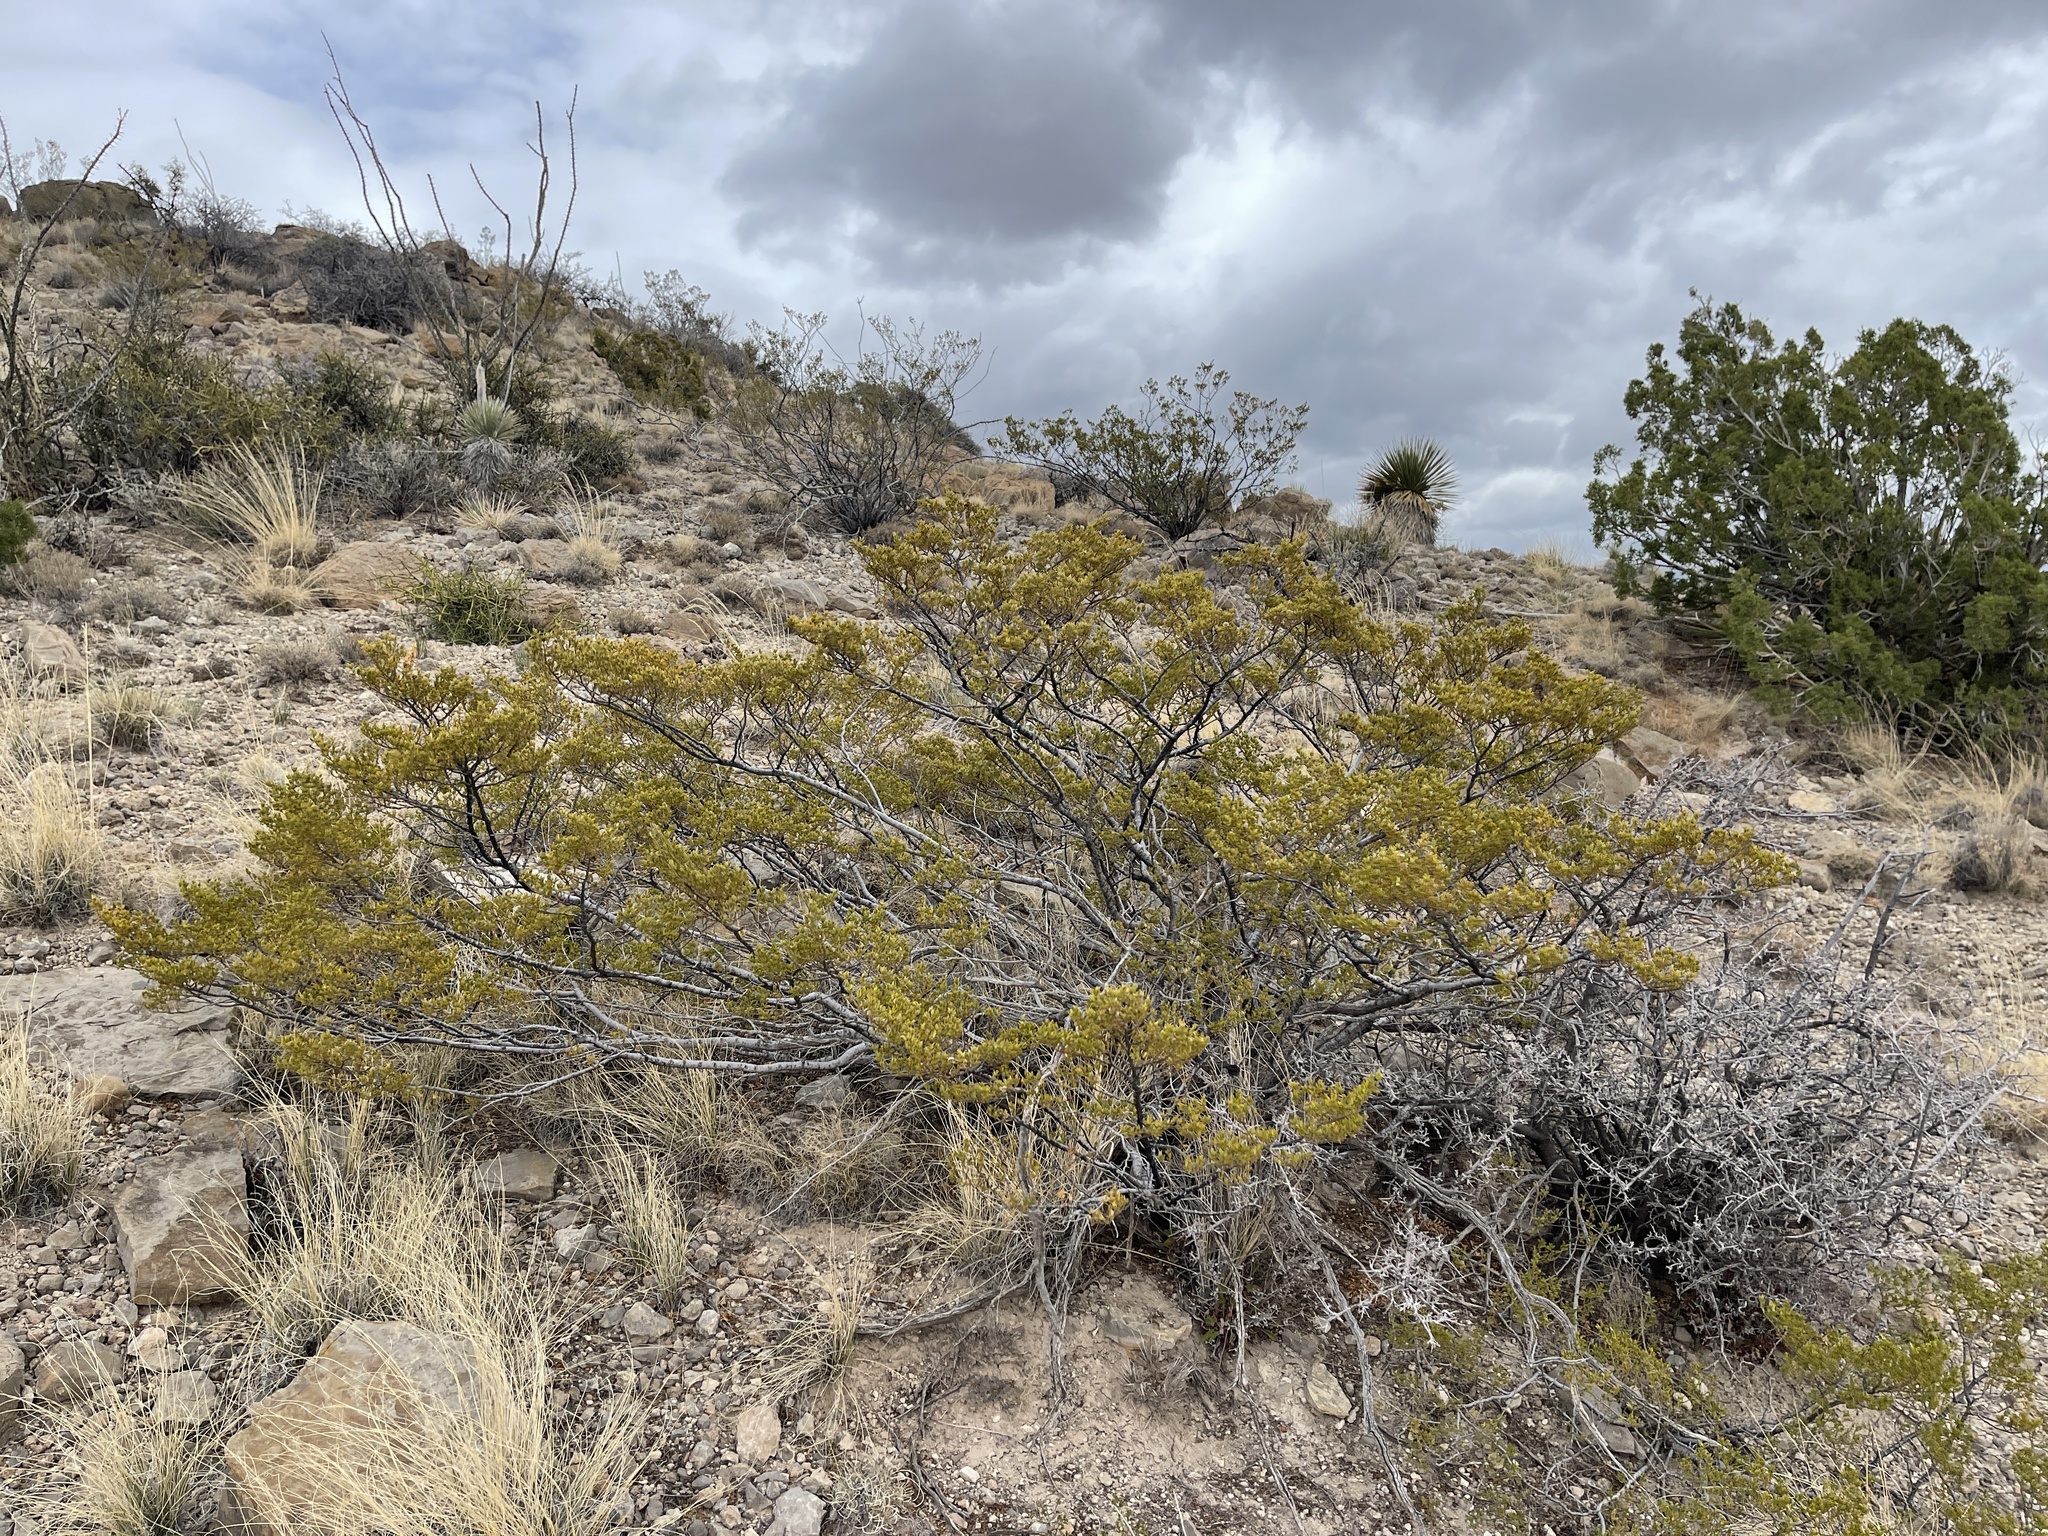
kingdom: Plantae
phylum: Tracheophyta
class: Magnoliopsida
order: Zygophyllales
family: Zygophyllaceae
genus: Larrea
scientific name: Larrea tridentata
